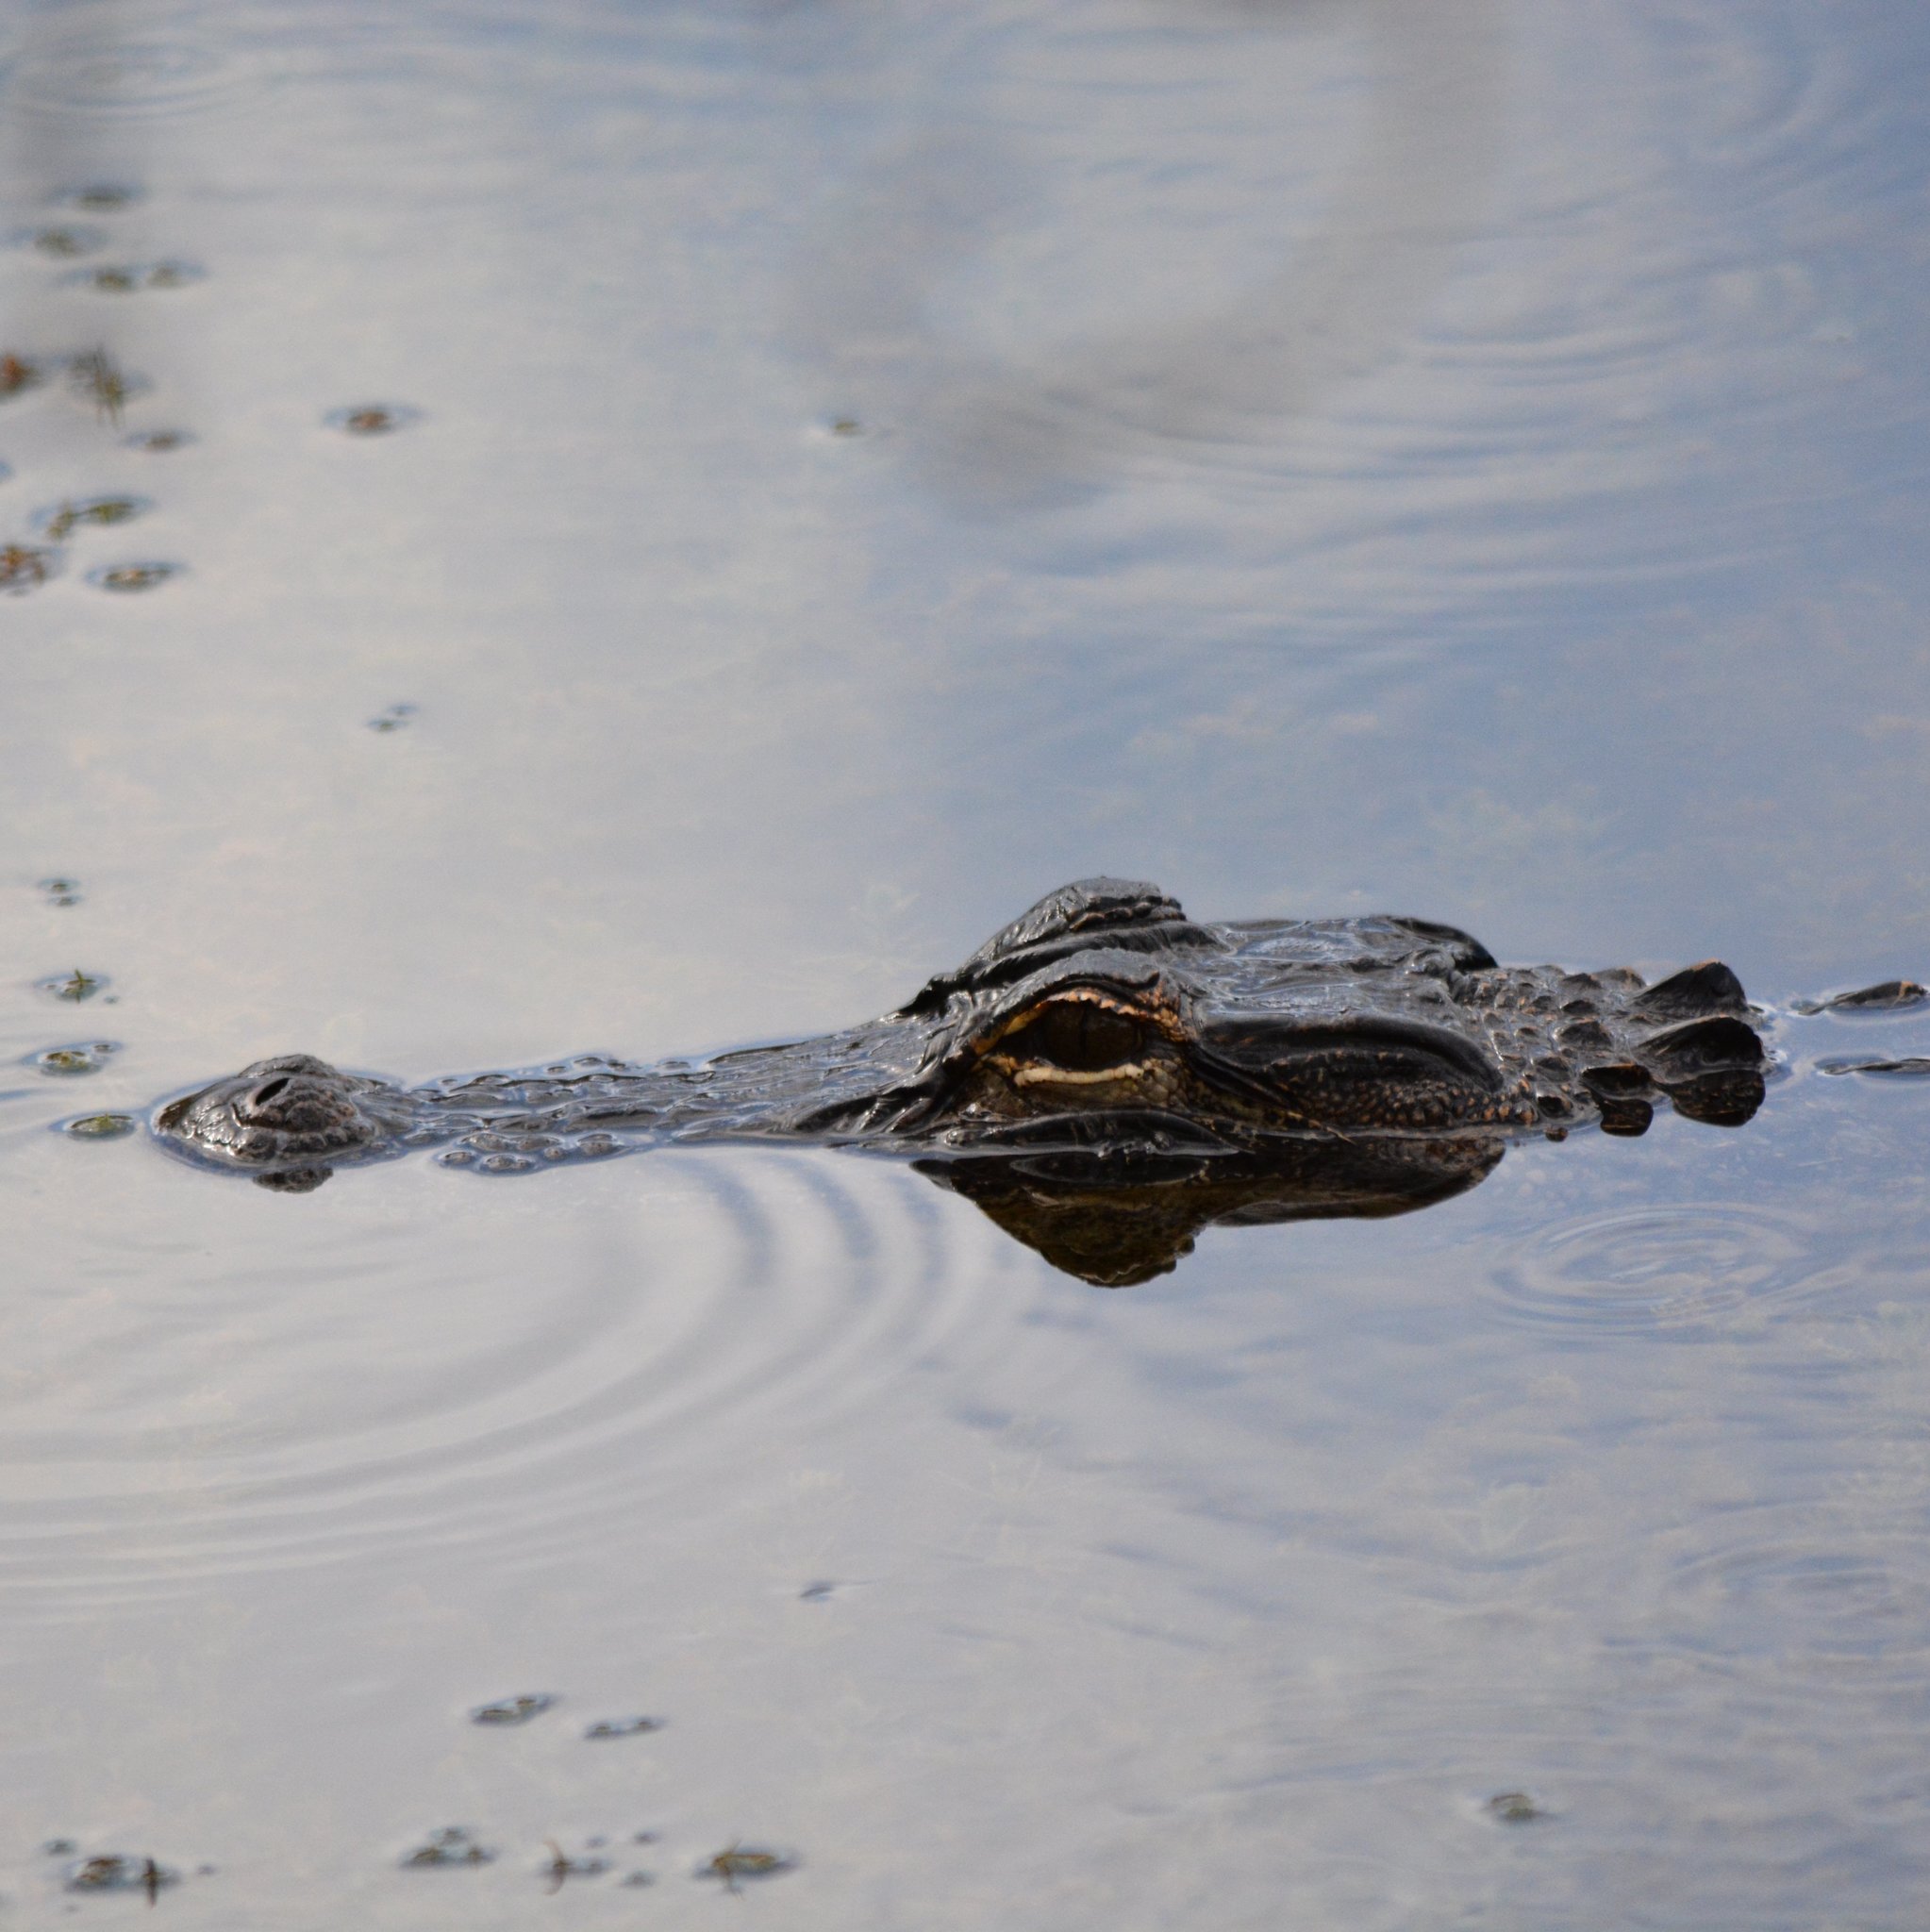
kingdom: Animalia
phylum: Chordata
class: Crocodylia
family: Alligatoridae
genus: Alligator
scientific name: Alligator mississippiensis
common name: American alligator
